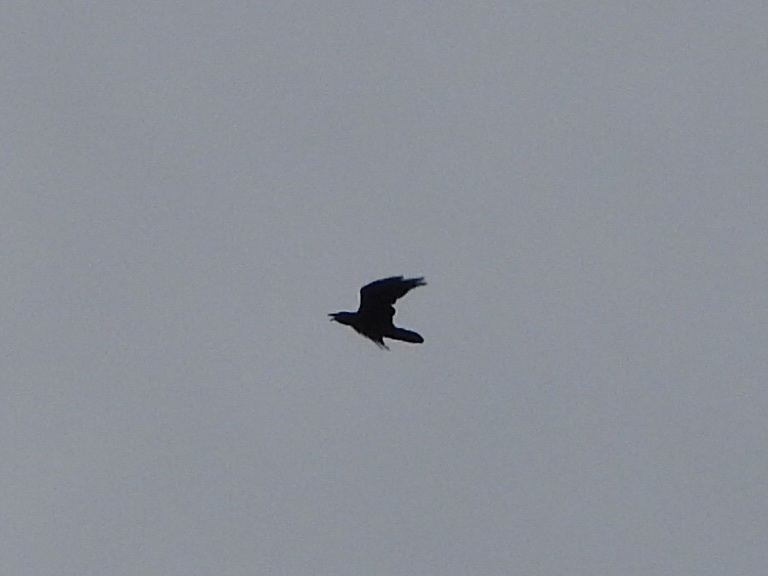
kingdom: Animalia
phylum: Chordata
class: Aves
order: Passeriformes
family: Corvidae
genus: Corvus
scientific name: Corvus corax
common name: Common raven
